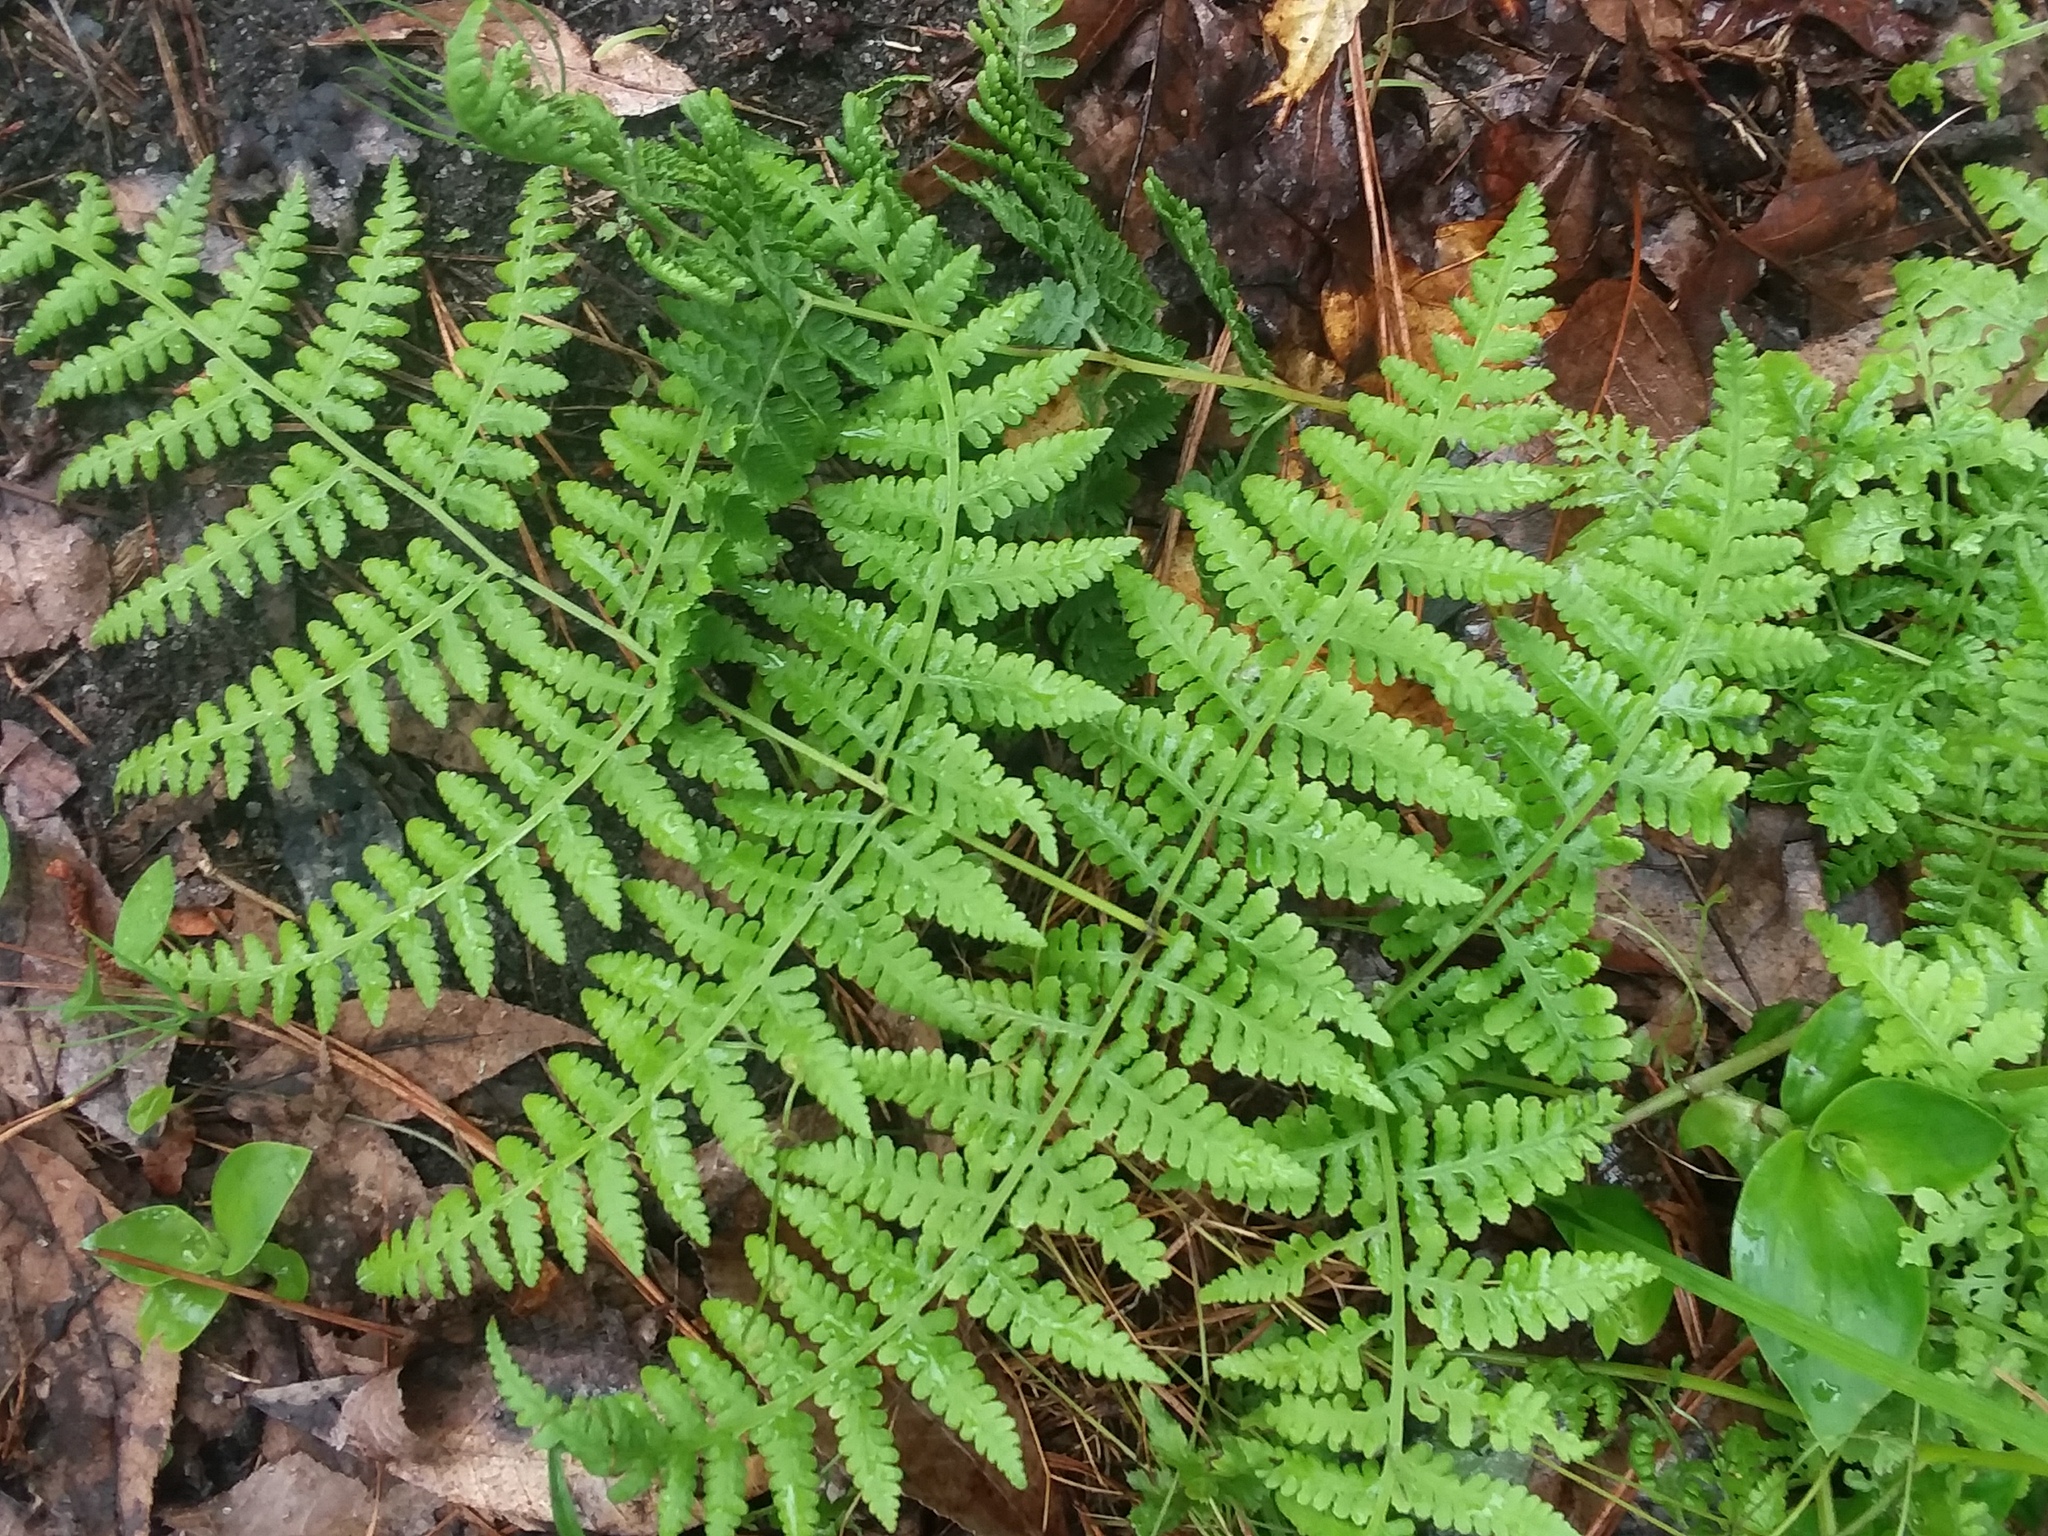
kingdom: Plantae
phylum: Tracheophyta
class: Polypodiopsida
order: Polypodiales
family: Thelypteridaceae
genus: Macrothelypteris
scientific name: Macrothelypteris torresiana
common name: Swordfern
